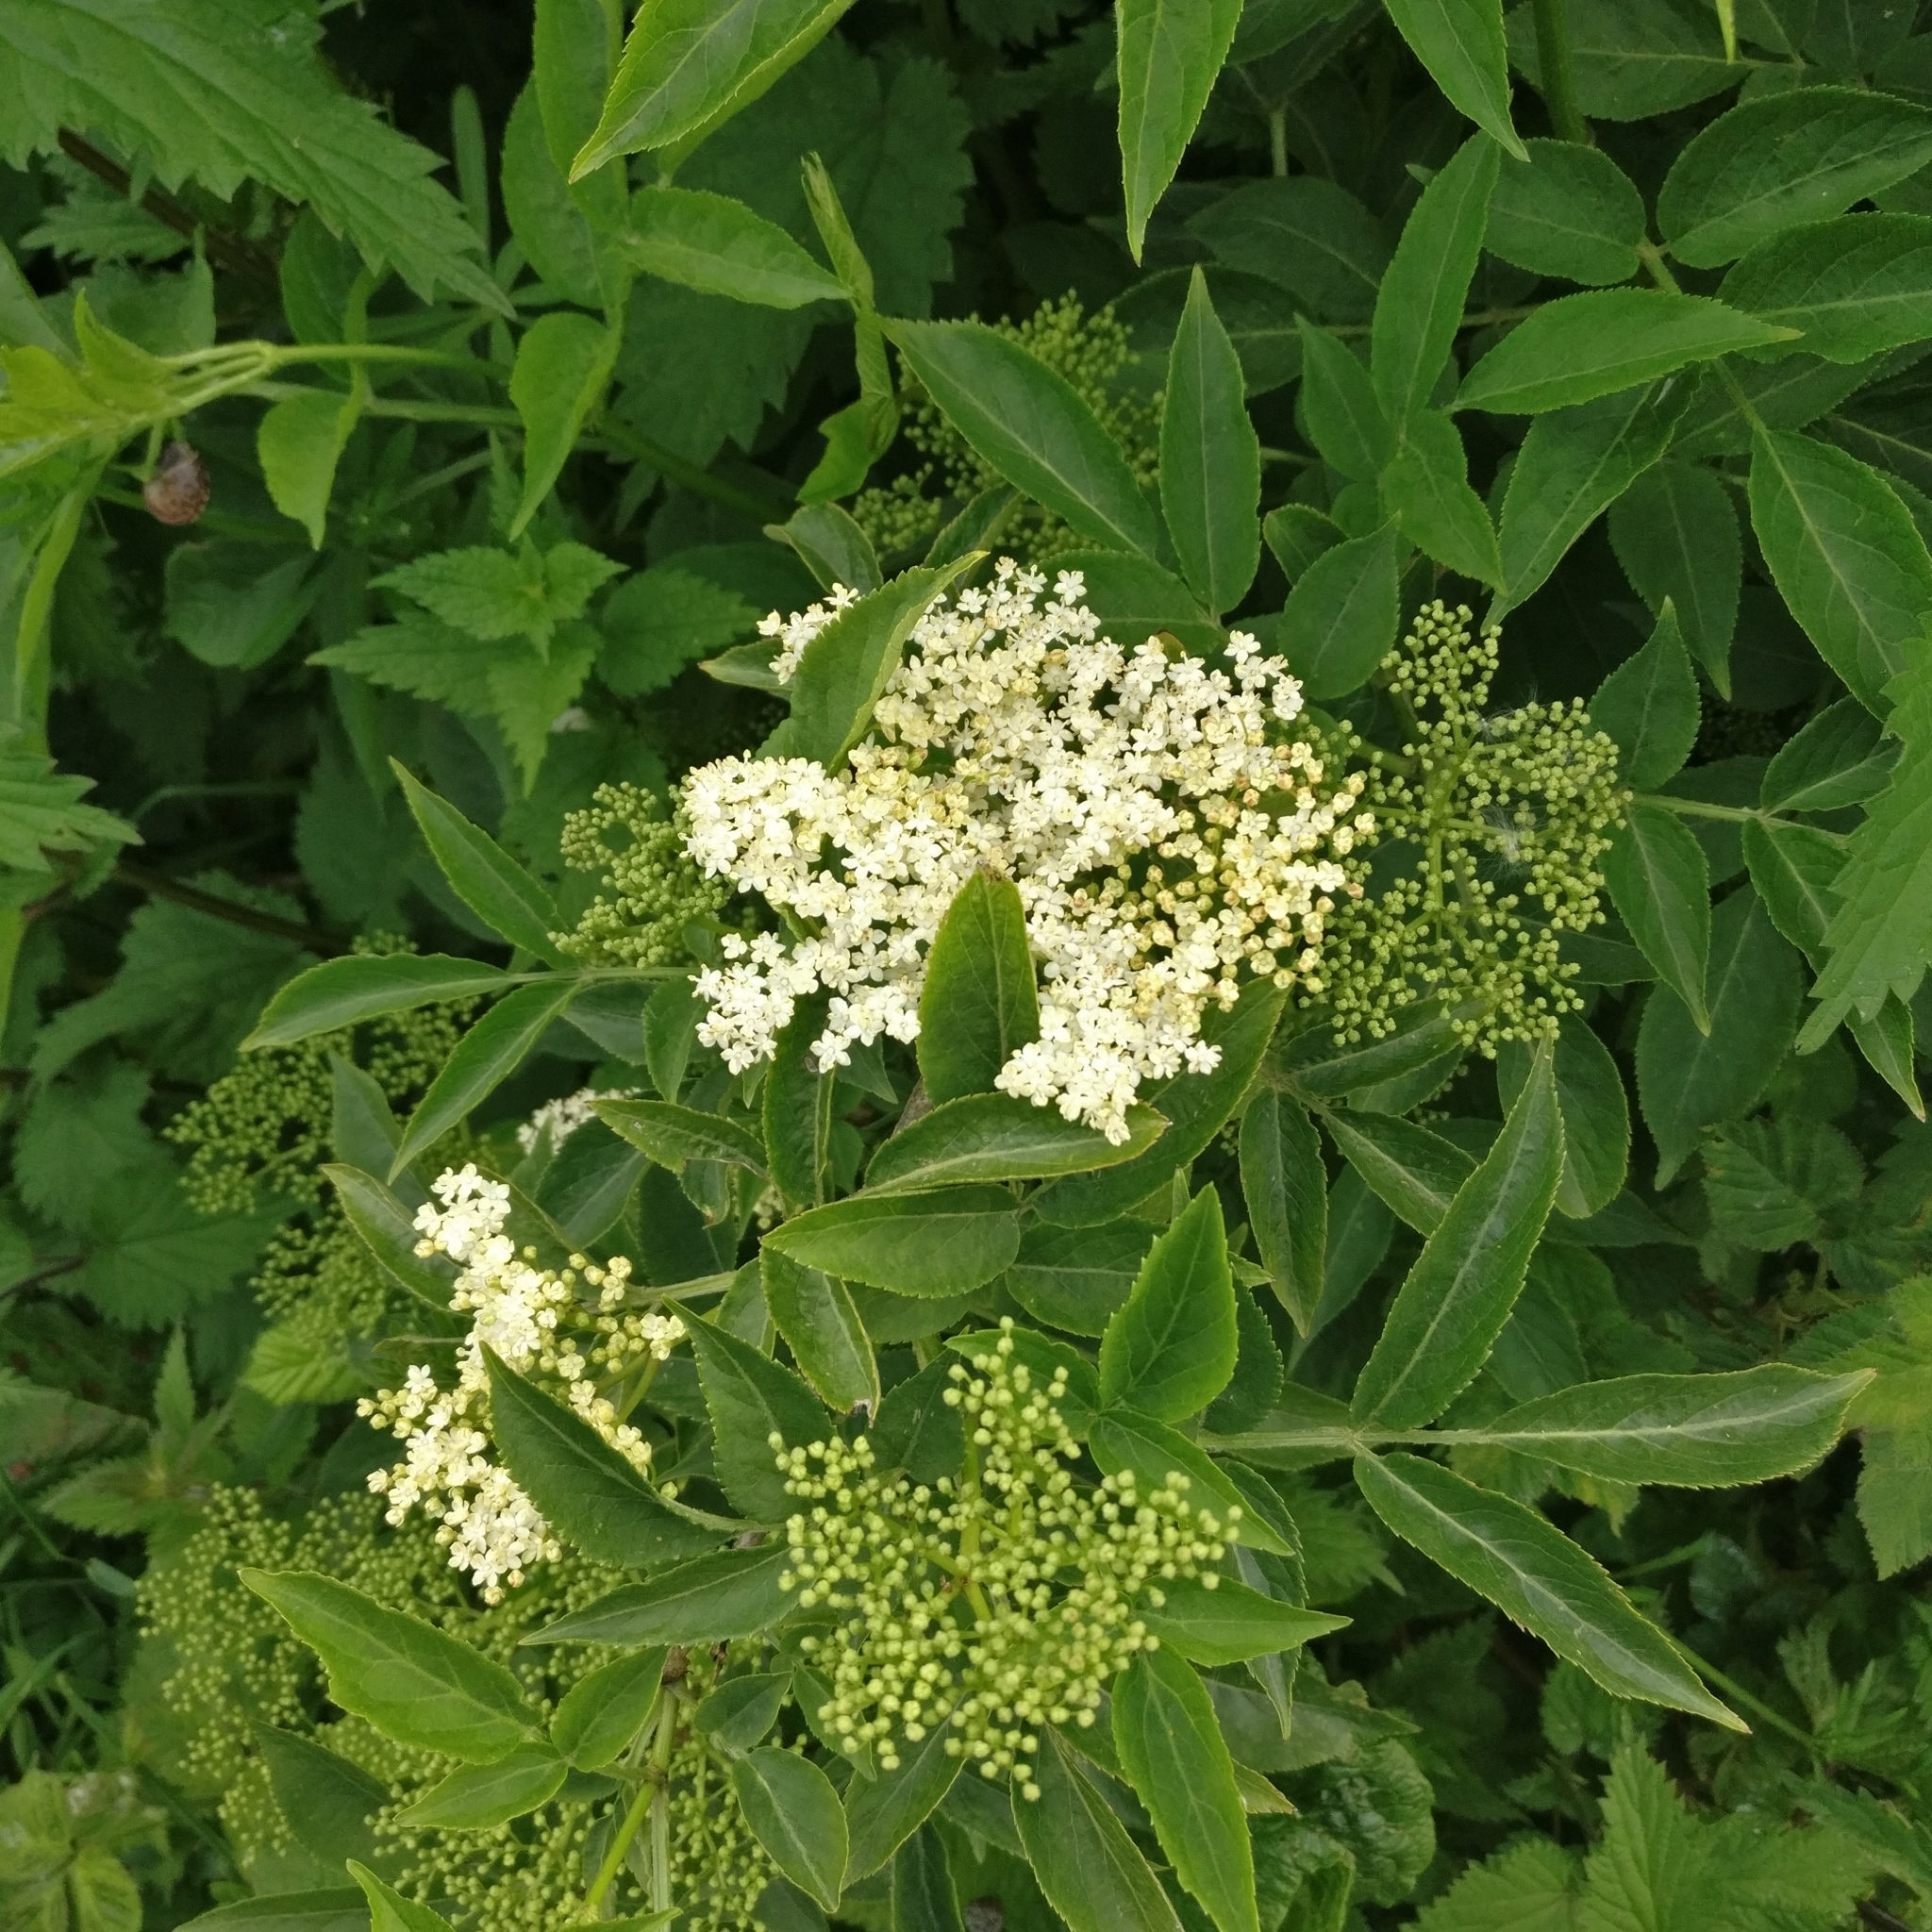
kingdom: Plantae
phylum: Tracheophyta
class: Magnoliopsida
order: Dipsacales
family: Viburnaceae
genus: Sambucus
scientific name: Sambucus nigra
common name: Elder
